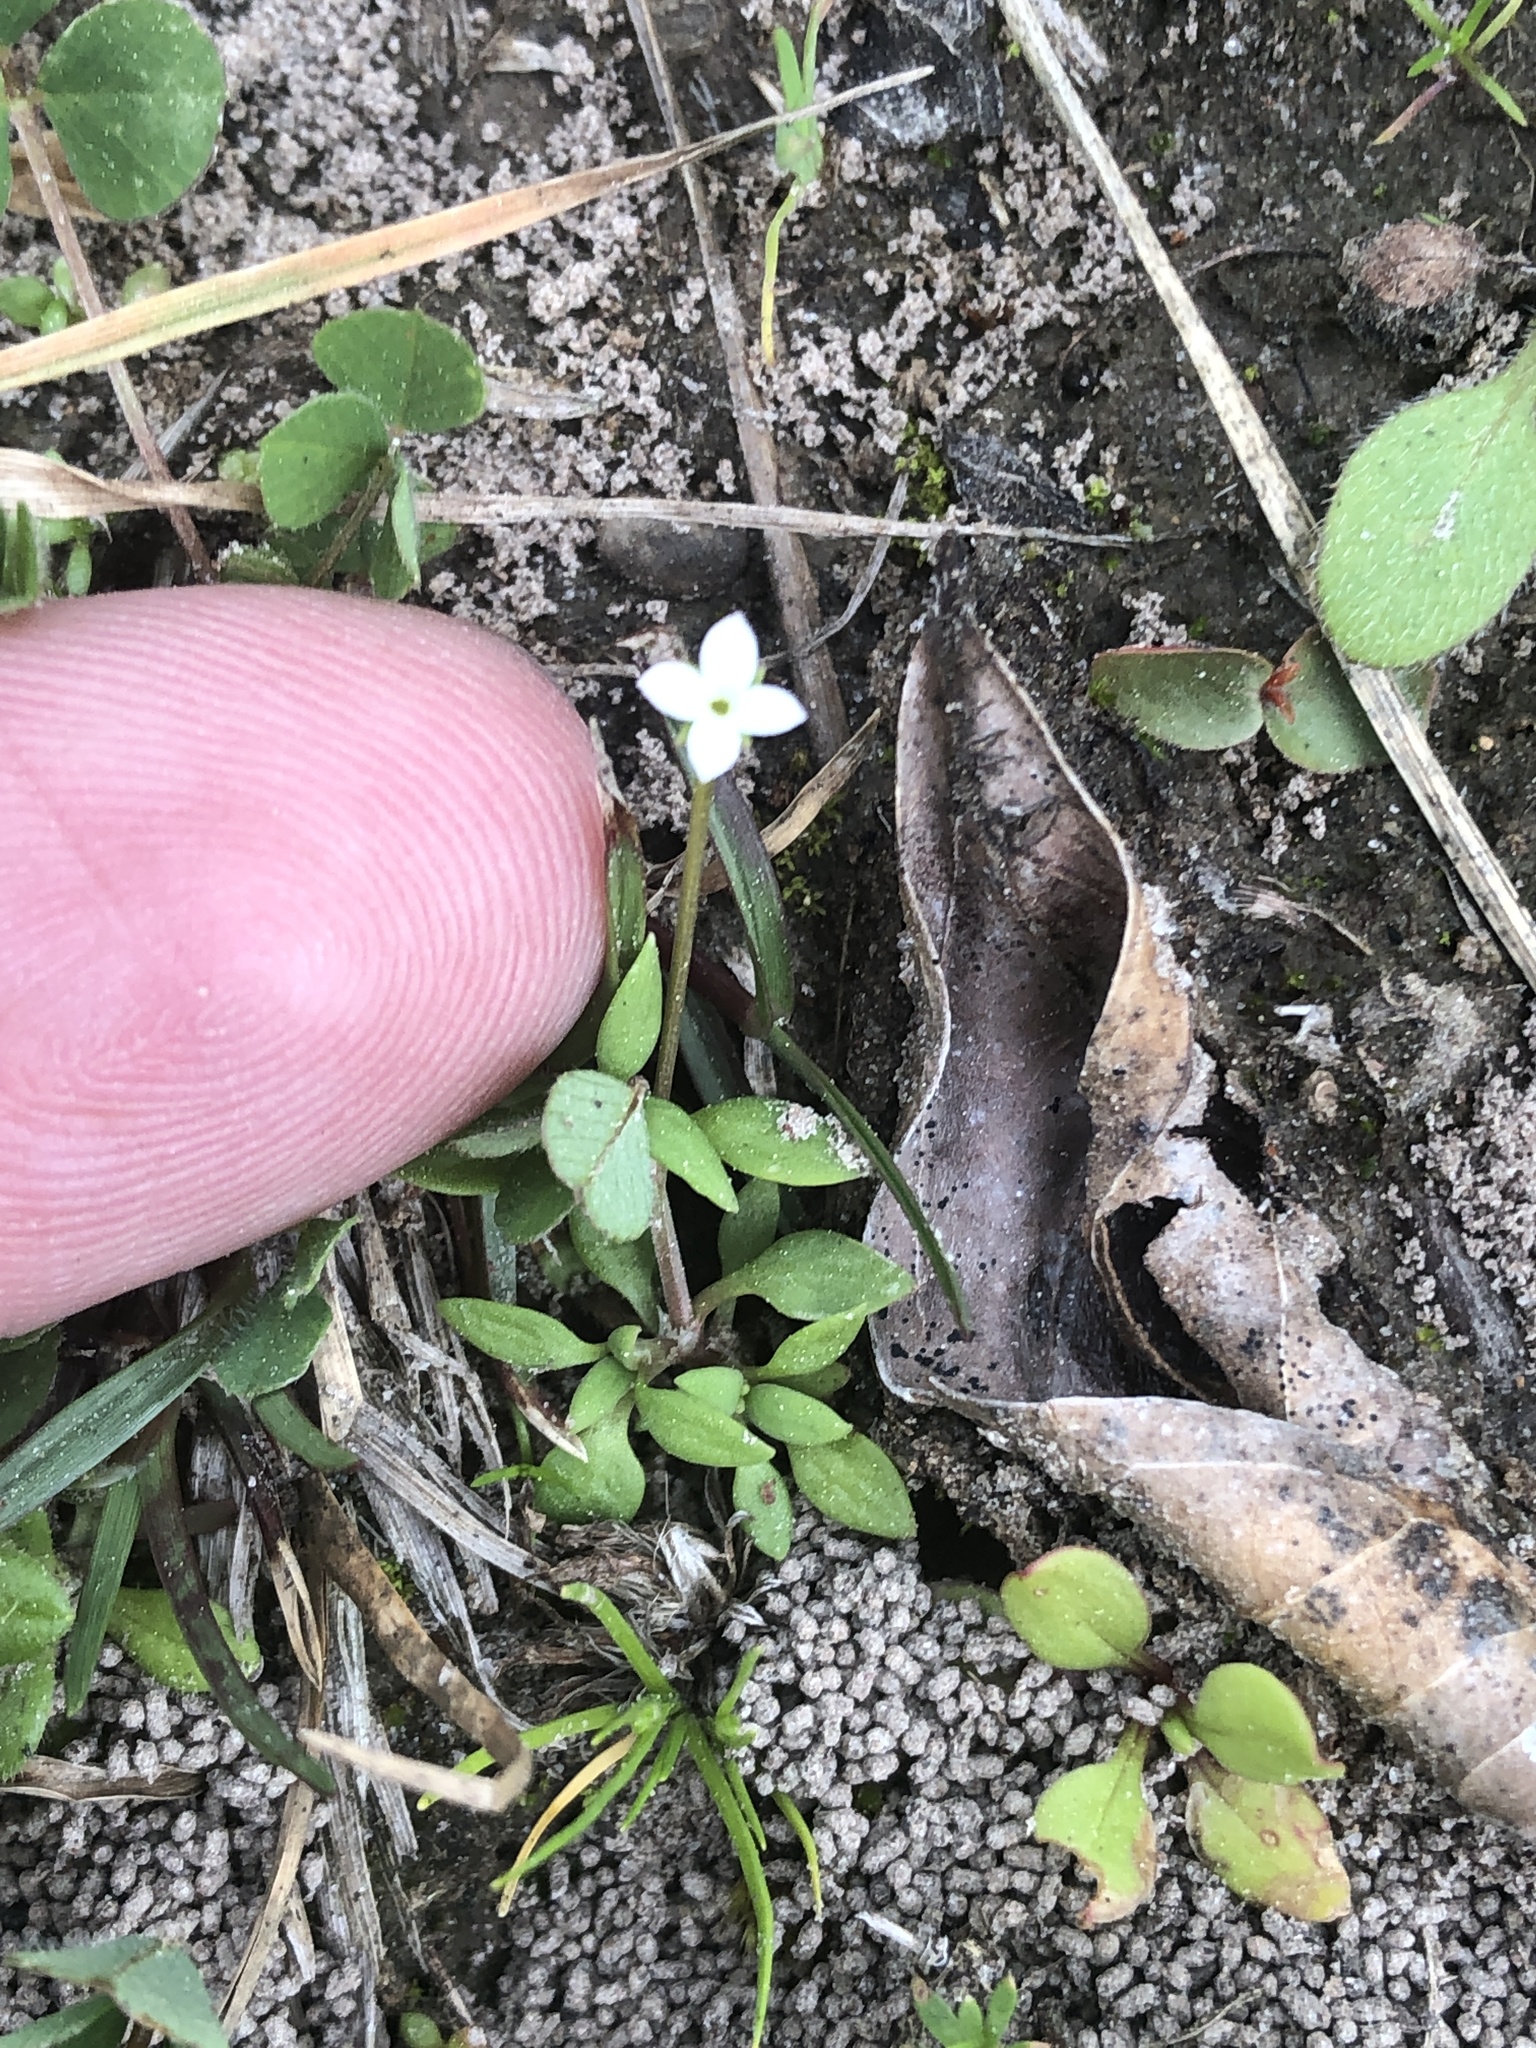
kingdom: Plantae
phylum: Tracheophyta
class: Magnoliopsida
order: Gentianales
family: Rubiaceae
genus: Houstonia
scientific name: Houstonia micrantha
